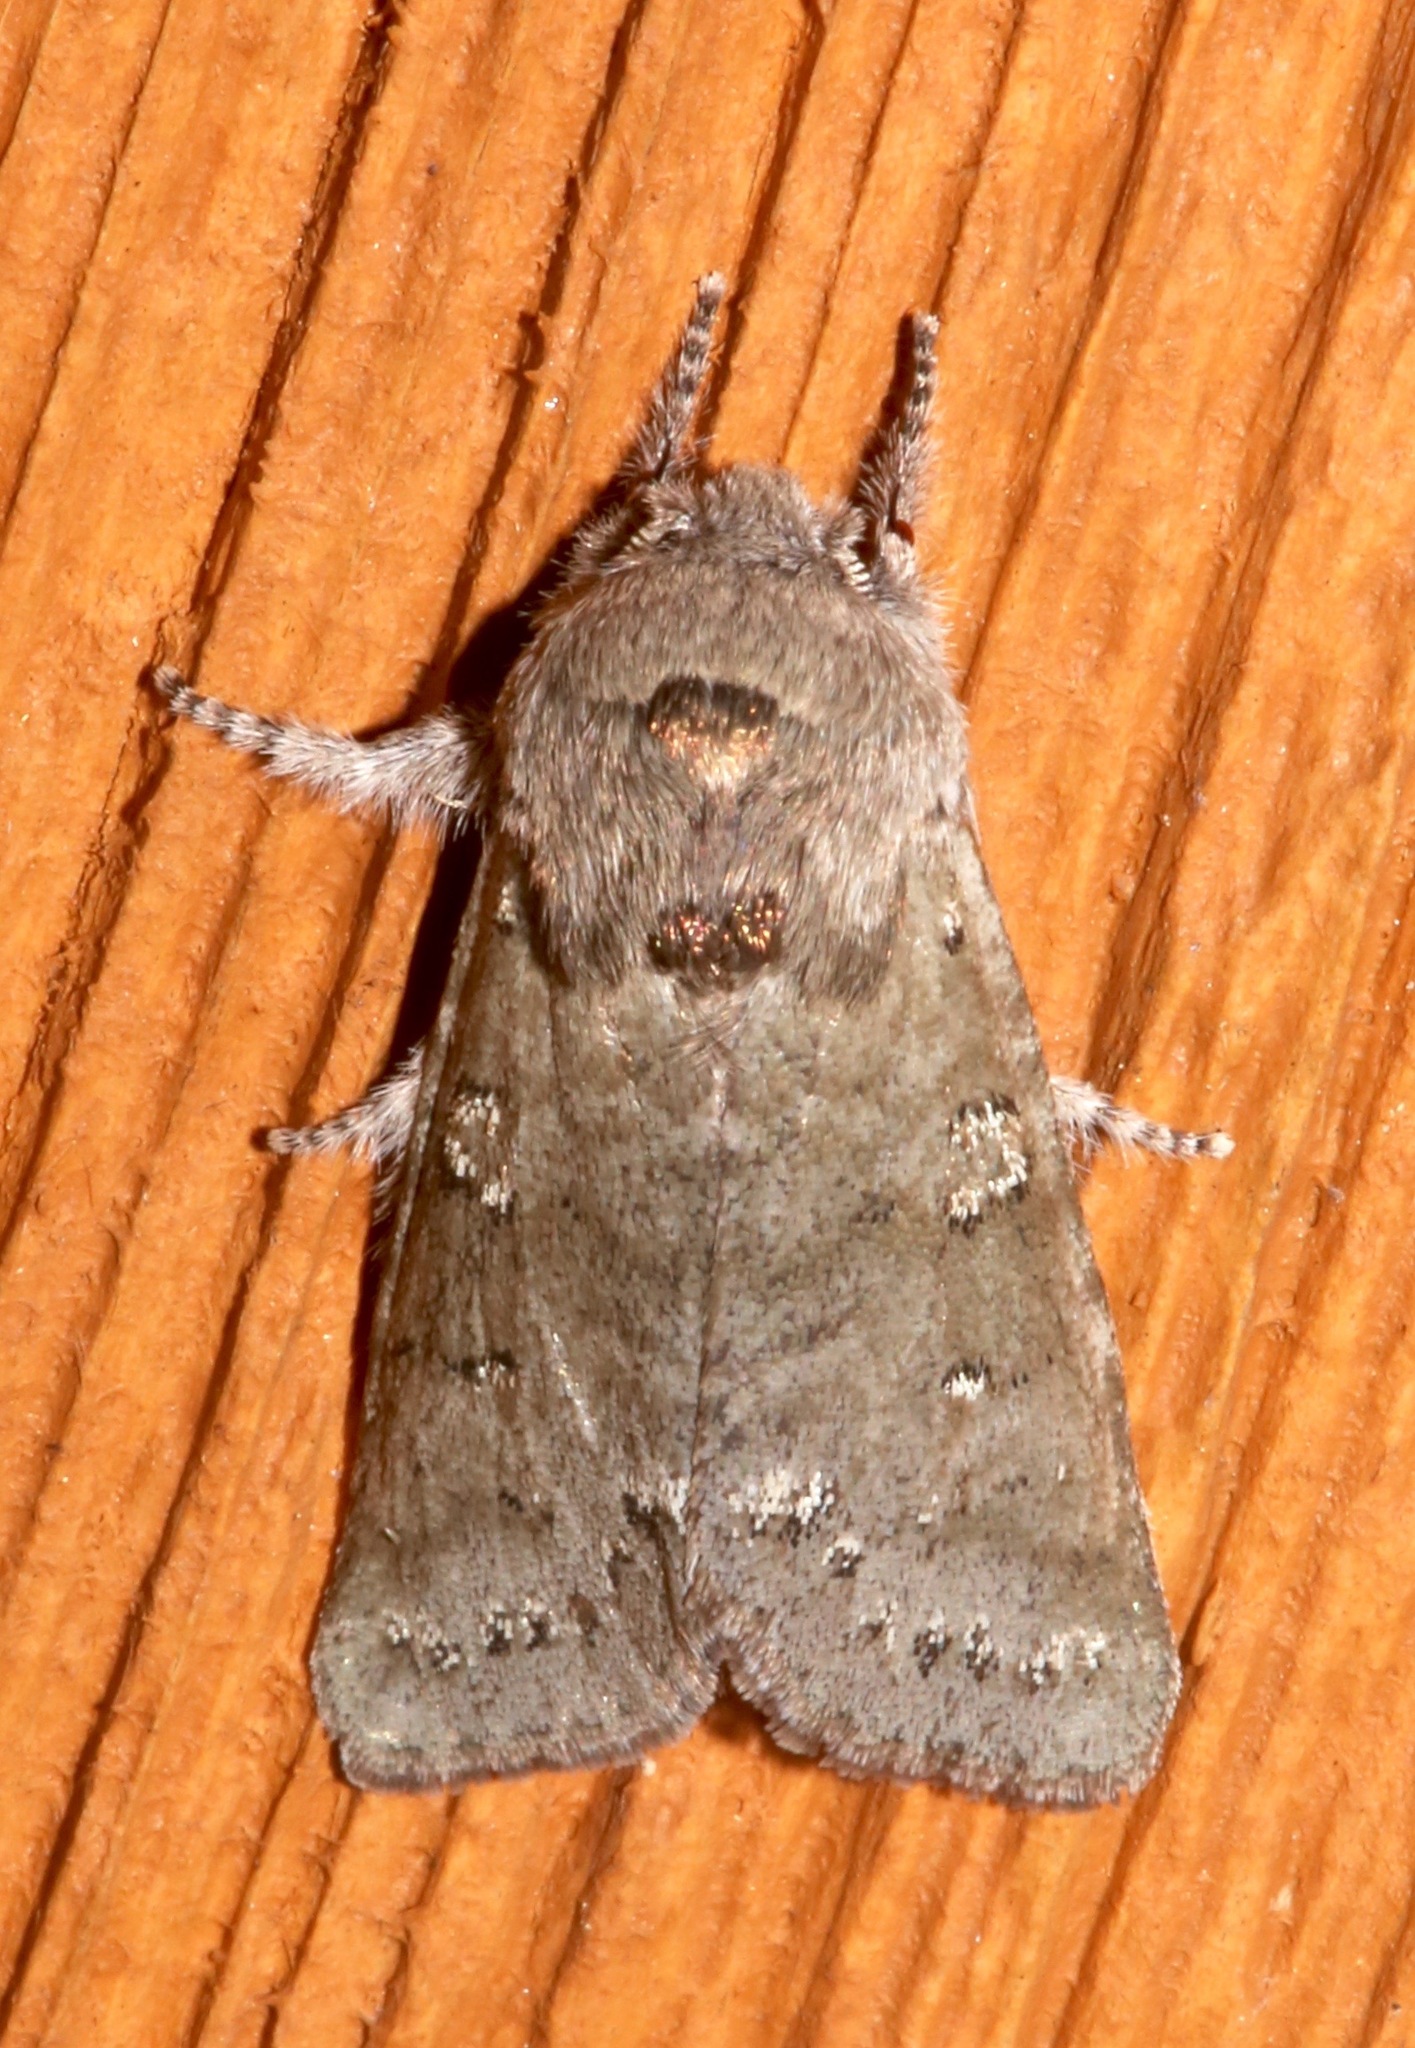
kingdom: Animalia
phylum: Arthropoda
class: Insecta
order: Lepidoptera
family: Noctuidae
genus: Psaphida
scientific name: Psaphida rolandi
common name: Roland's sallow
